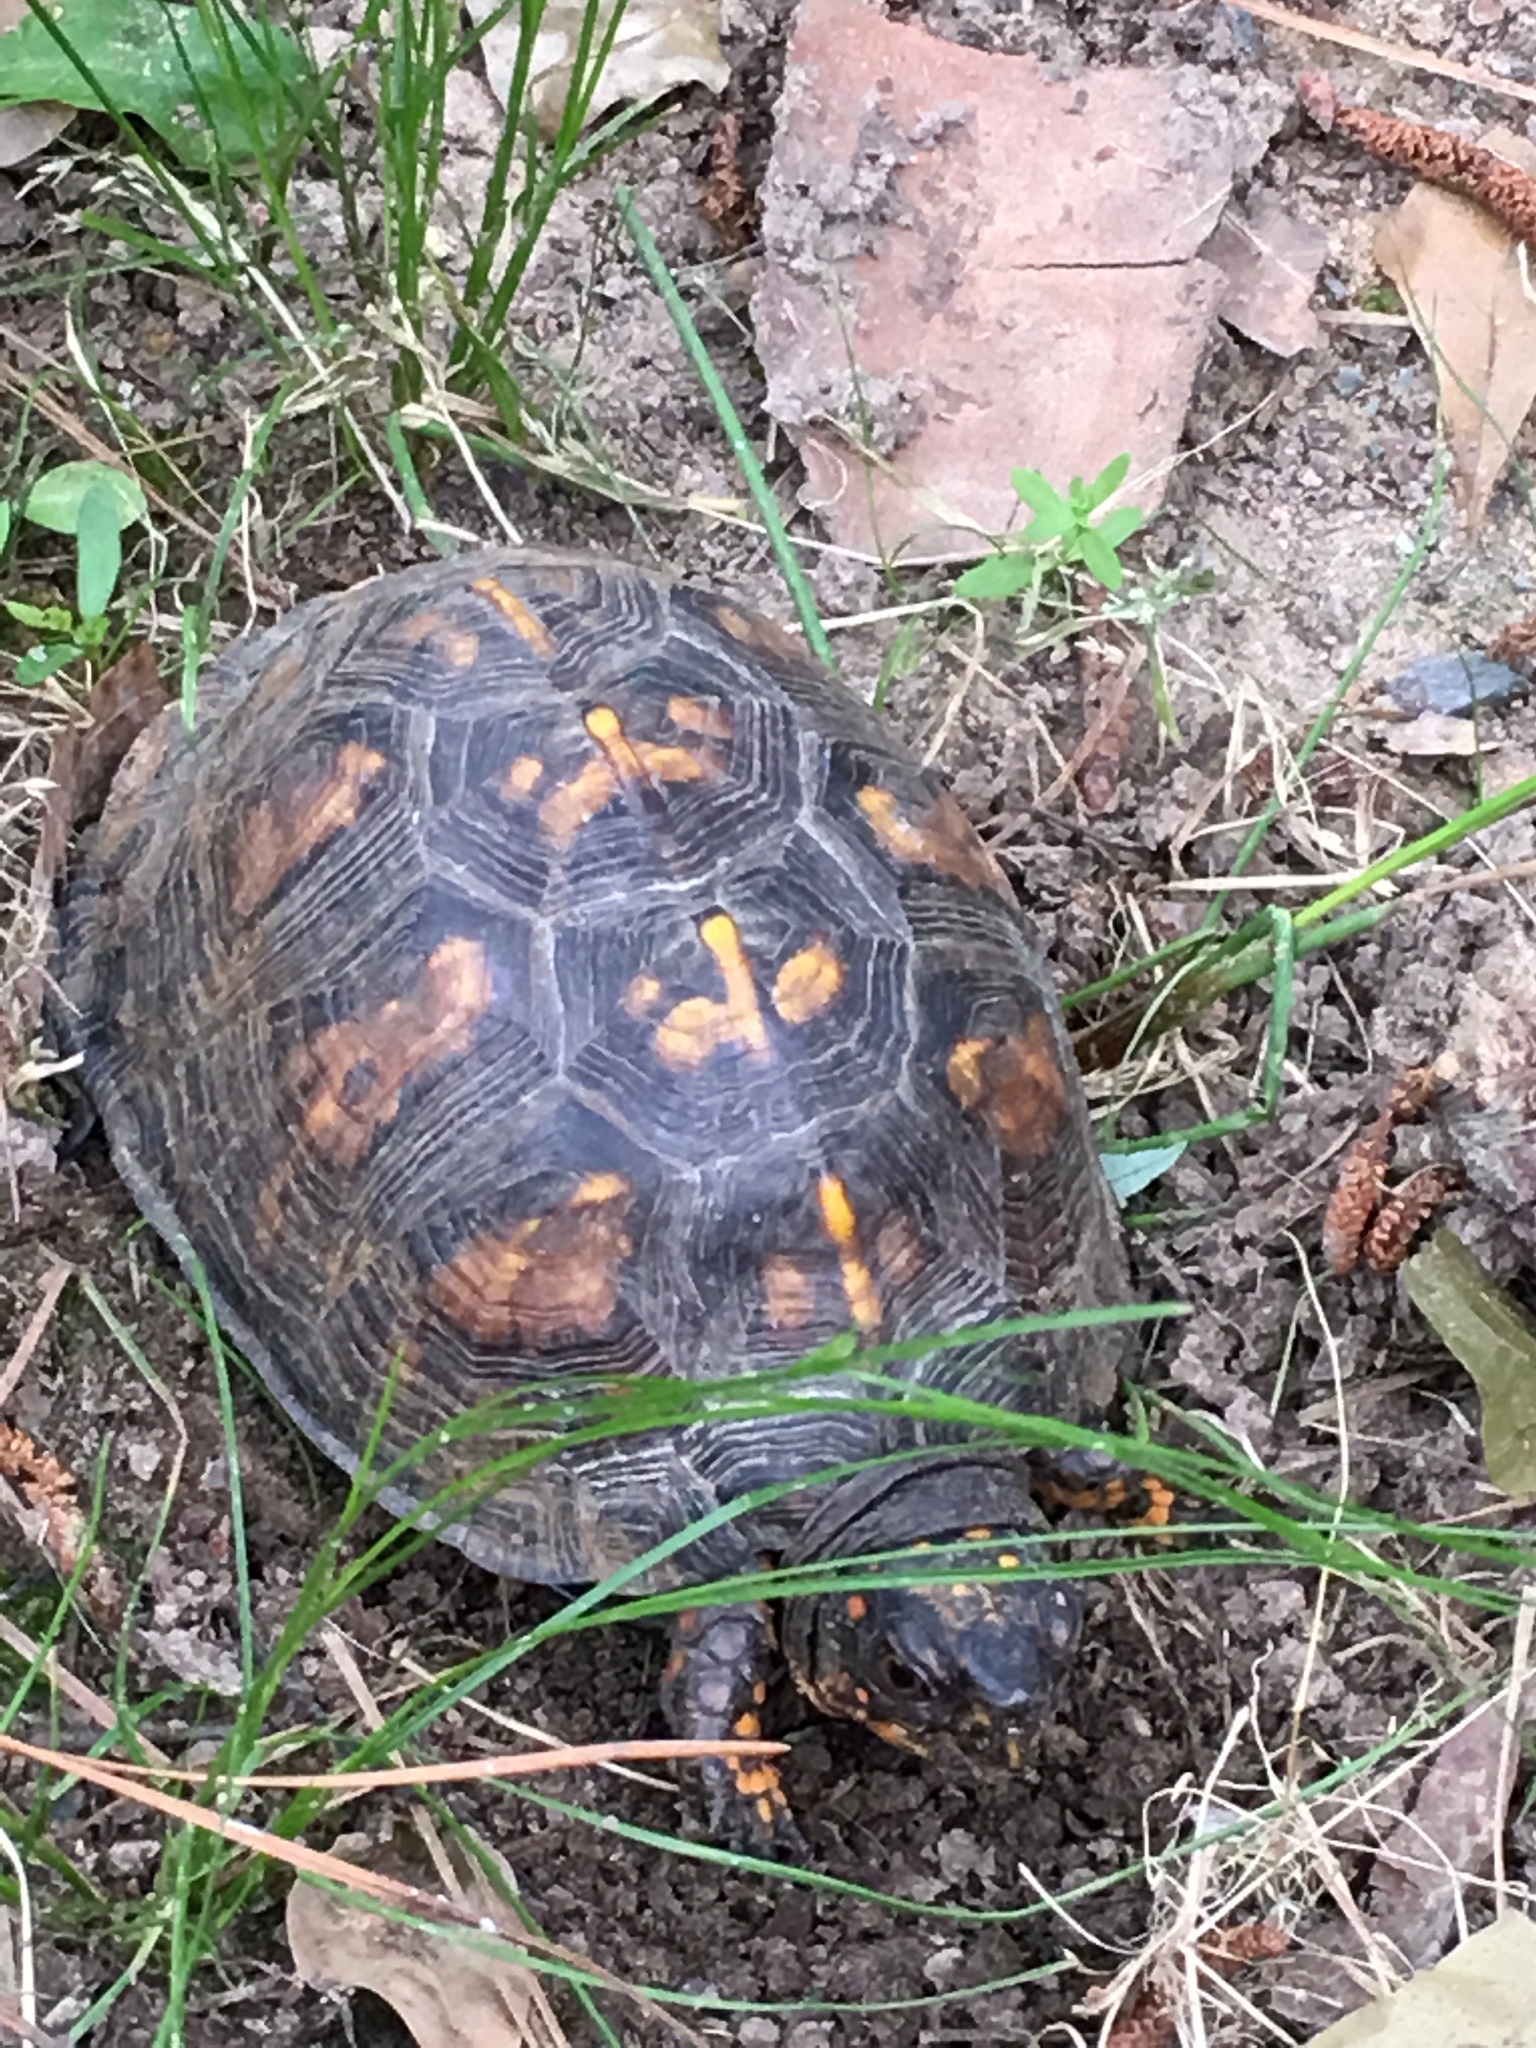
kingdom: Animalia
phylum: Chordata
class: Testudines
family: Emydidae
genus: Terrapene
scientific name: Terrapene carolina
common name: Common box turtle
